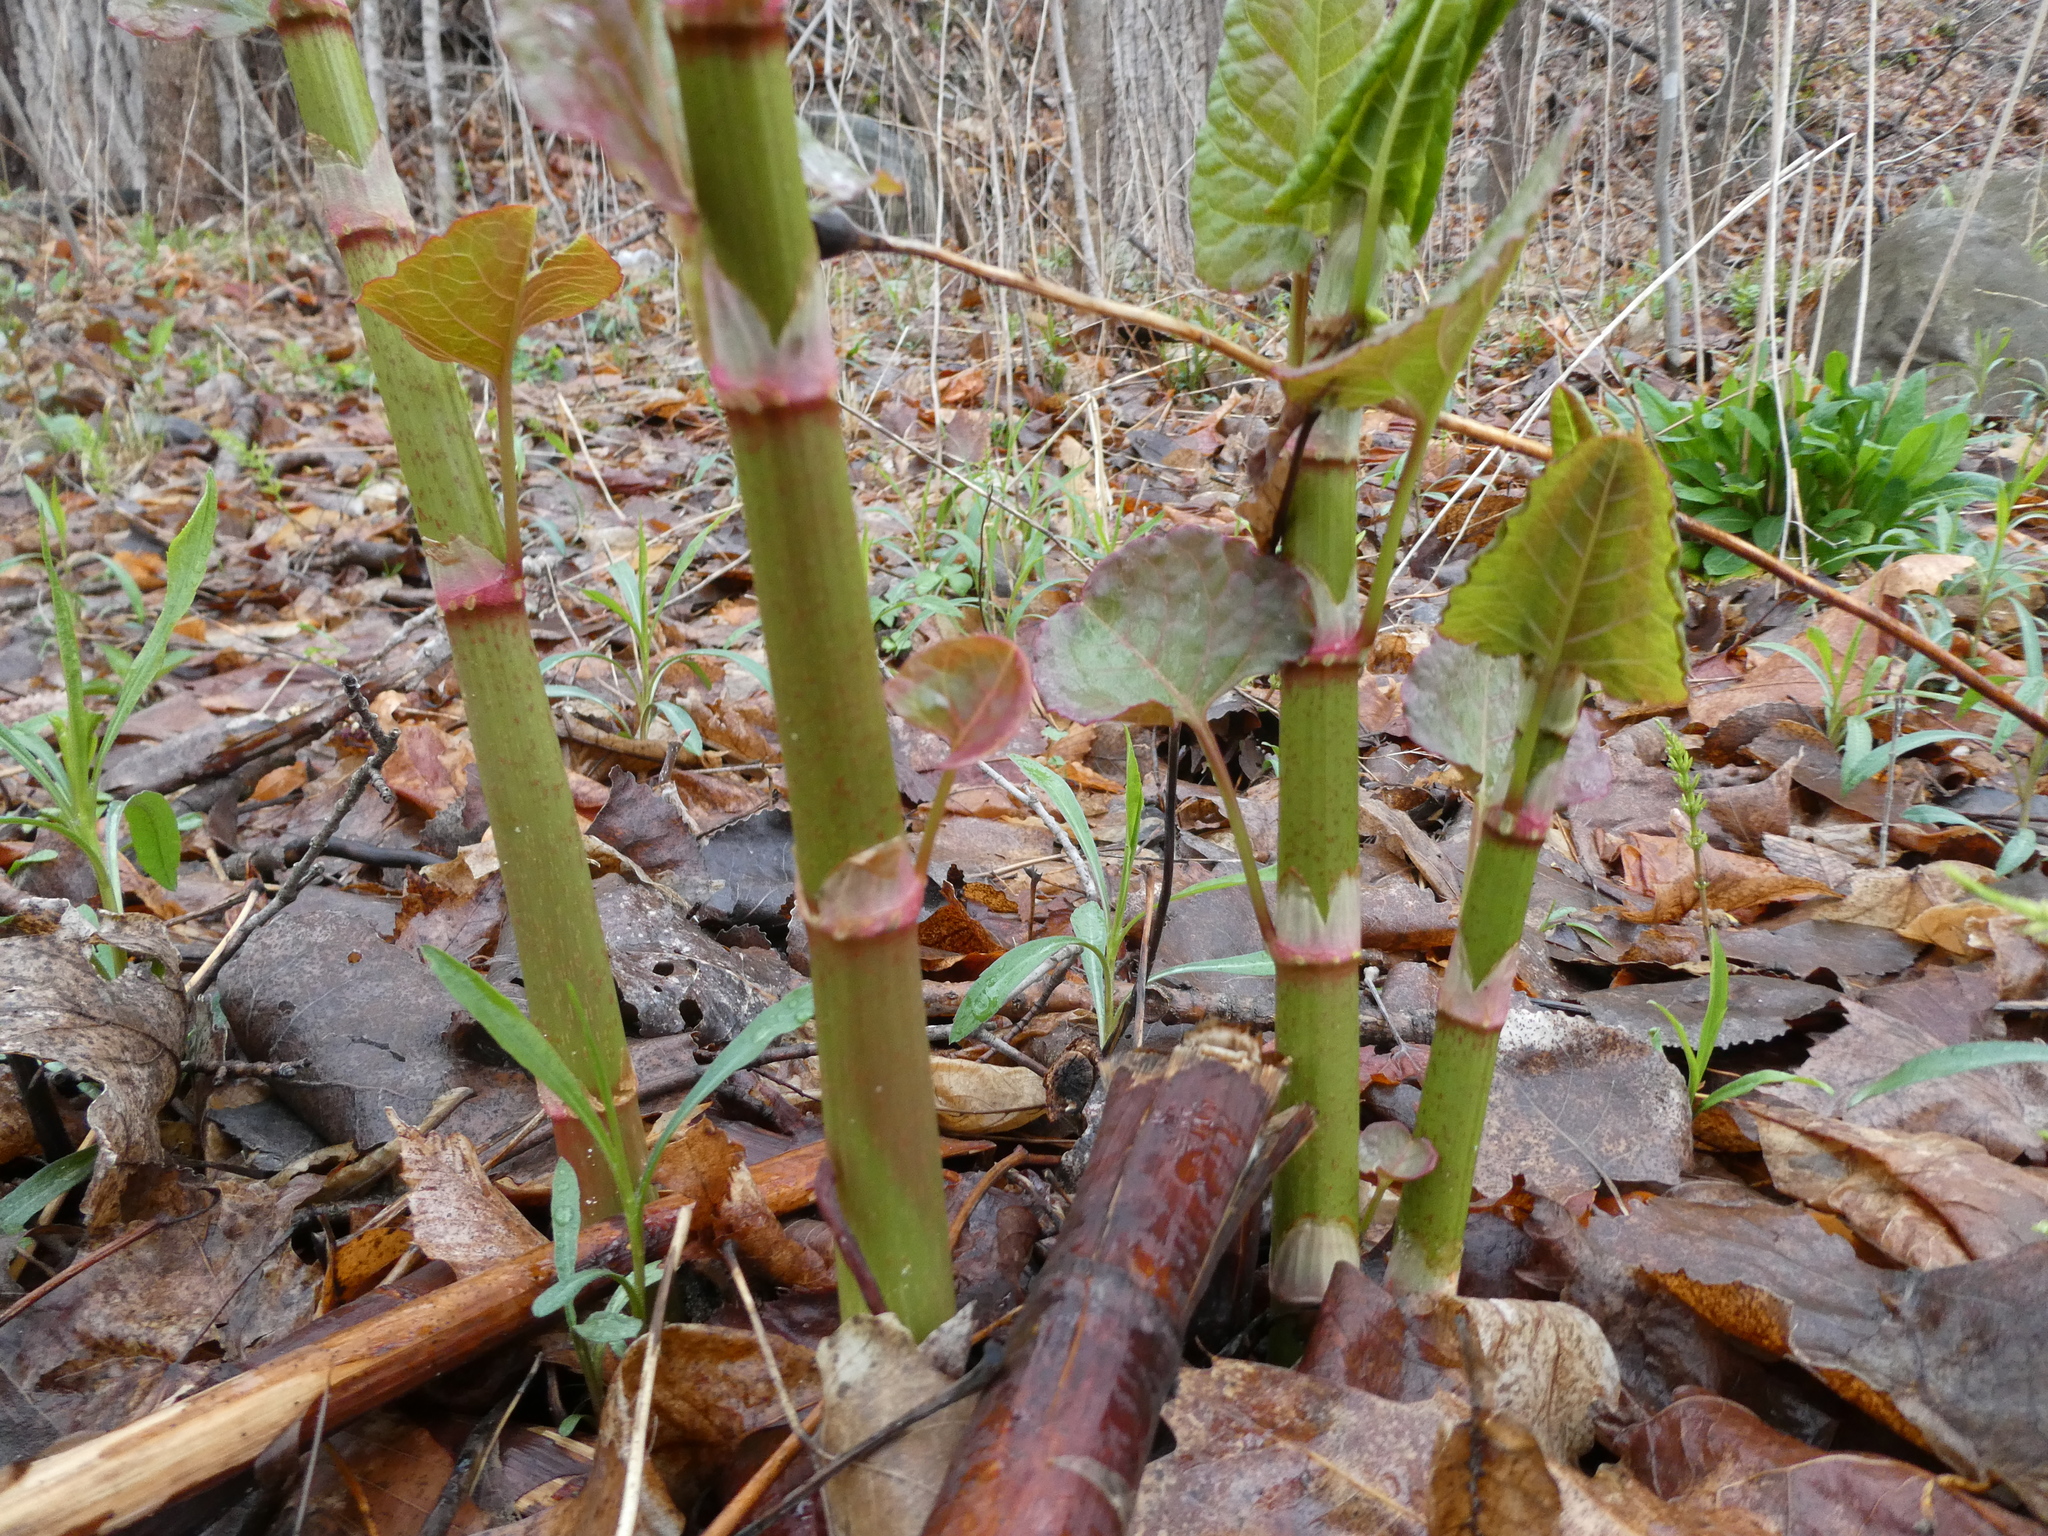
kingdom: Plantae
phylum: Tracheophyta
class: Magnoliopsida
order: Caryophyllales
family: Polygonaceae
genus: Reynoutria
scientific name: Reynoutria japonica
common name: Japanese knotweed
